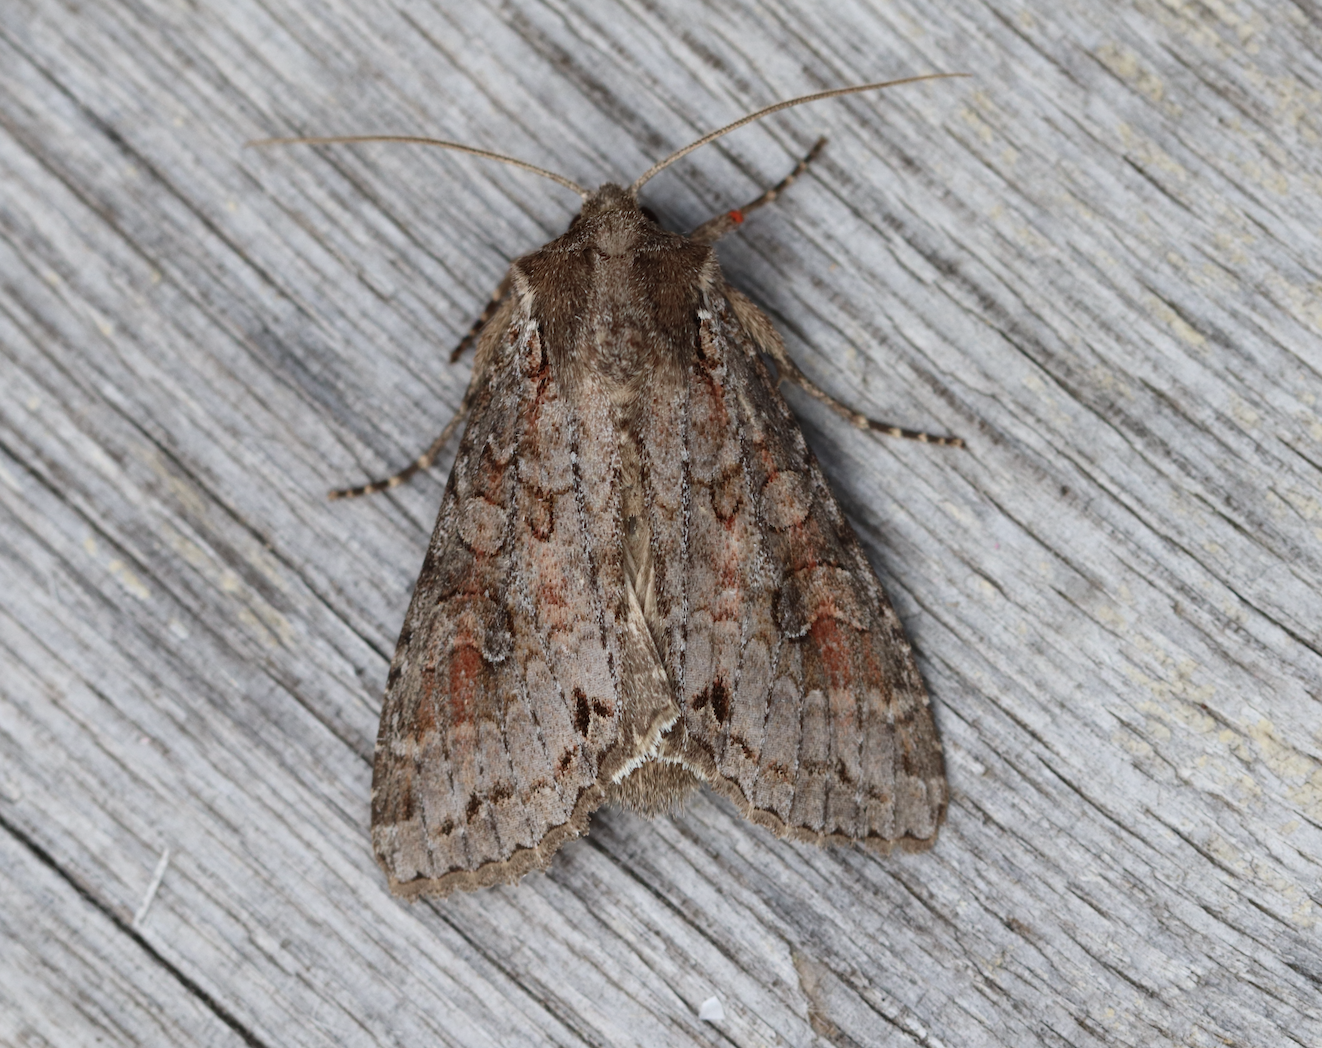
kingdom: Animalia
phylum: Arthropoda
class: Insecta
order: Lepidoptera
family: Noctuidae
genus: Polia
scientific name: Polia bombycina
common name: Pale shining brown
